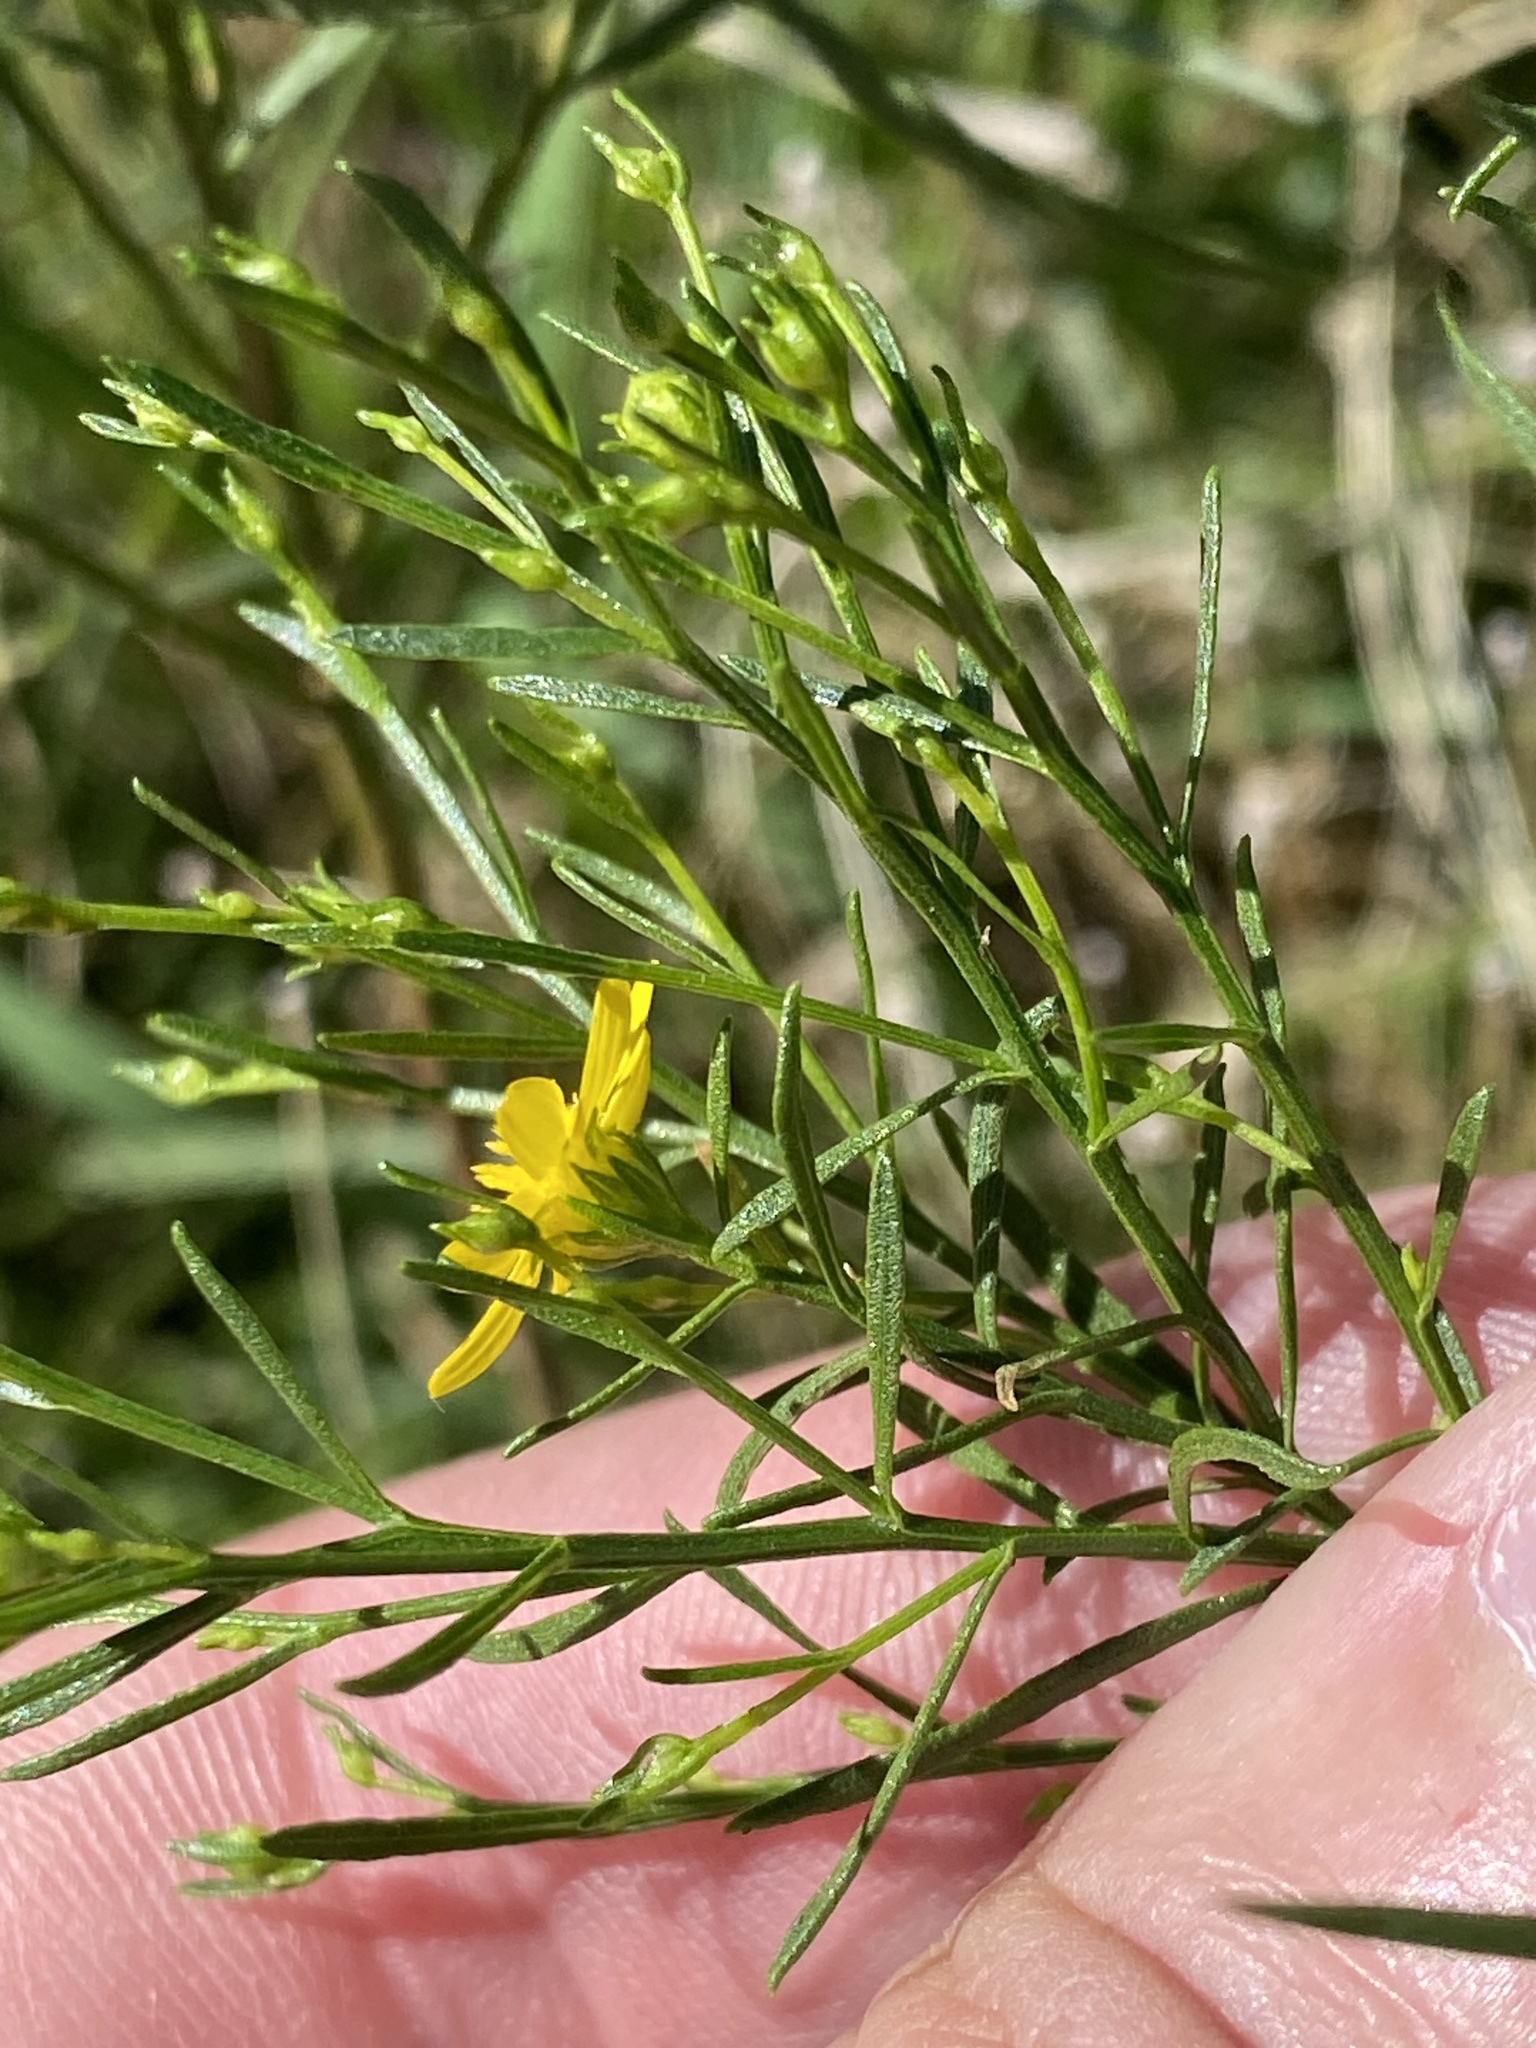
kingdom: Plantae
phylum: Tracheophyta
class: Magnoliopsida
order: Asterales
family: Asteraceae
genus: Amphiachyris
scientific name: Amphiachyris dracunculoides
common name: Broomweed
